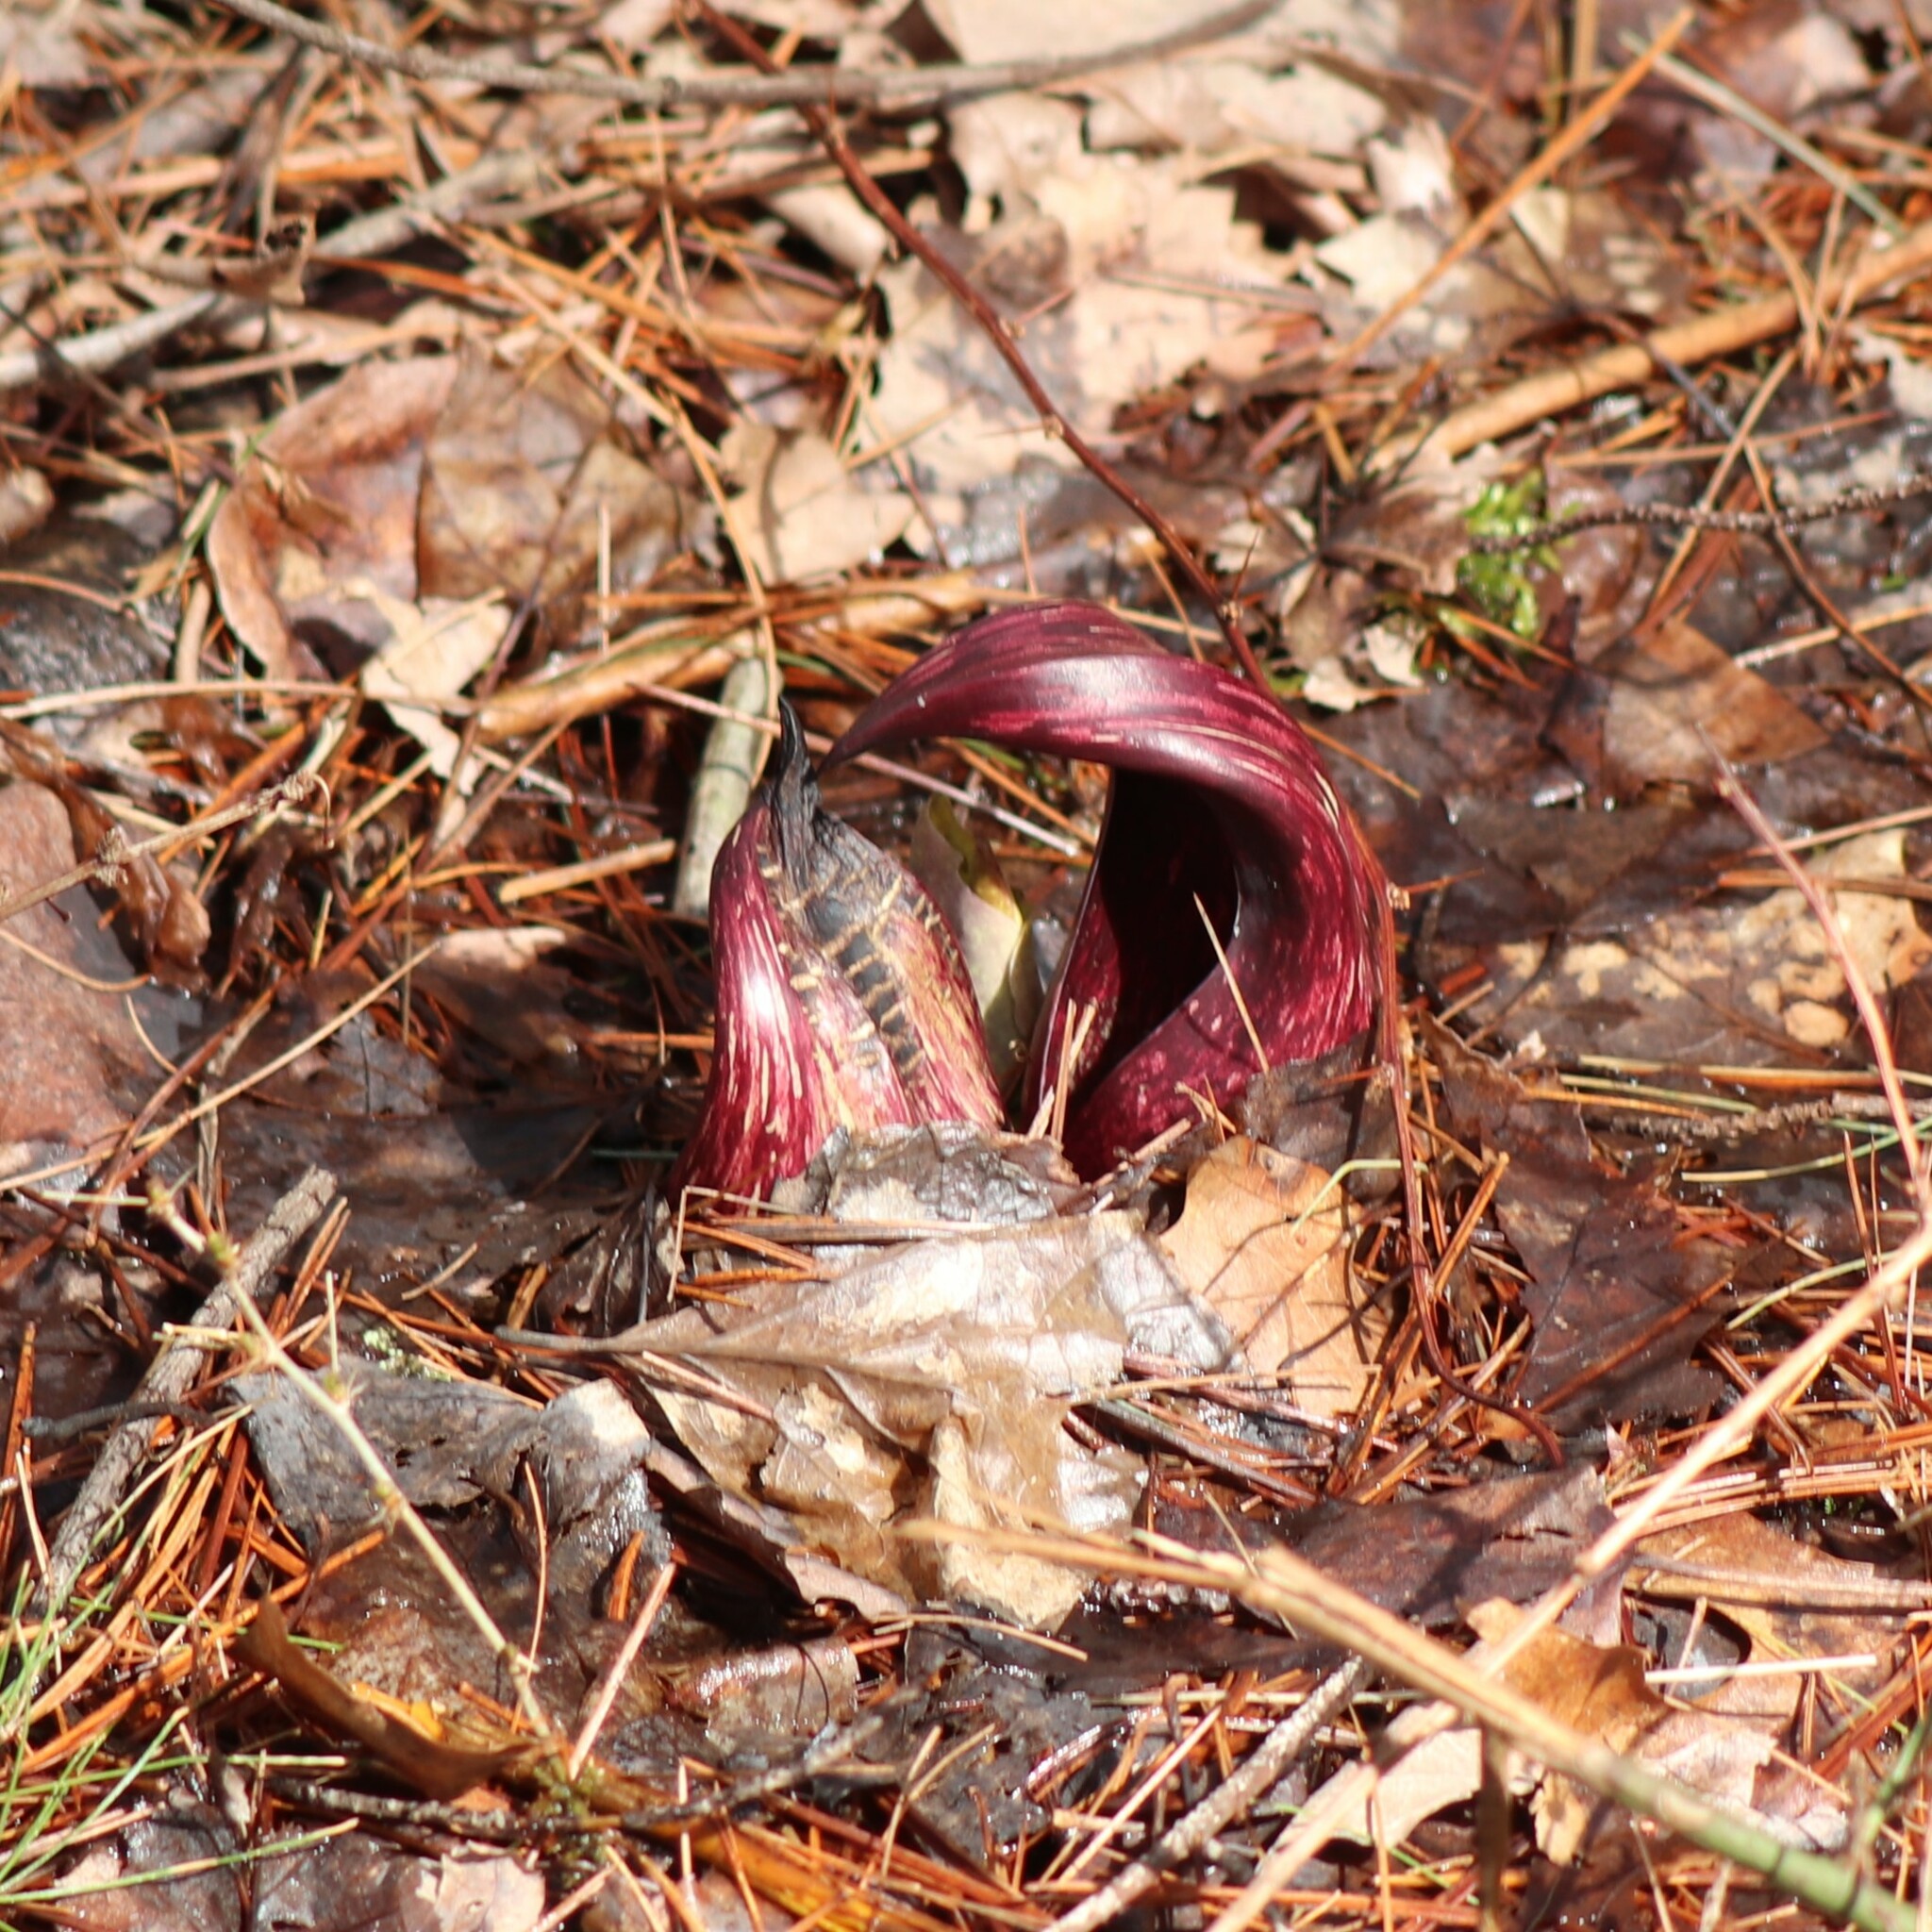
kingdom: Plantae
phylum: Tracheophyta
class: Liliopsida
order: Alismatales
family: Araceae
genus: Symplocarpus
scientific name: Symplocarpus foetidus
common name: Eastern skunk cabbage
